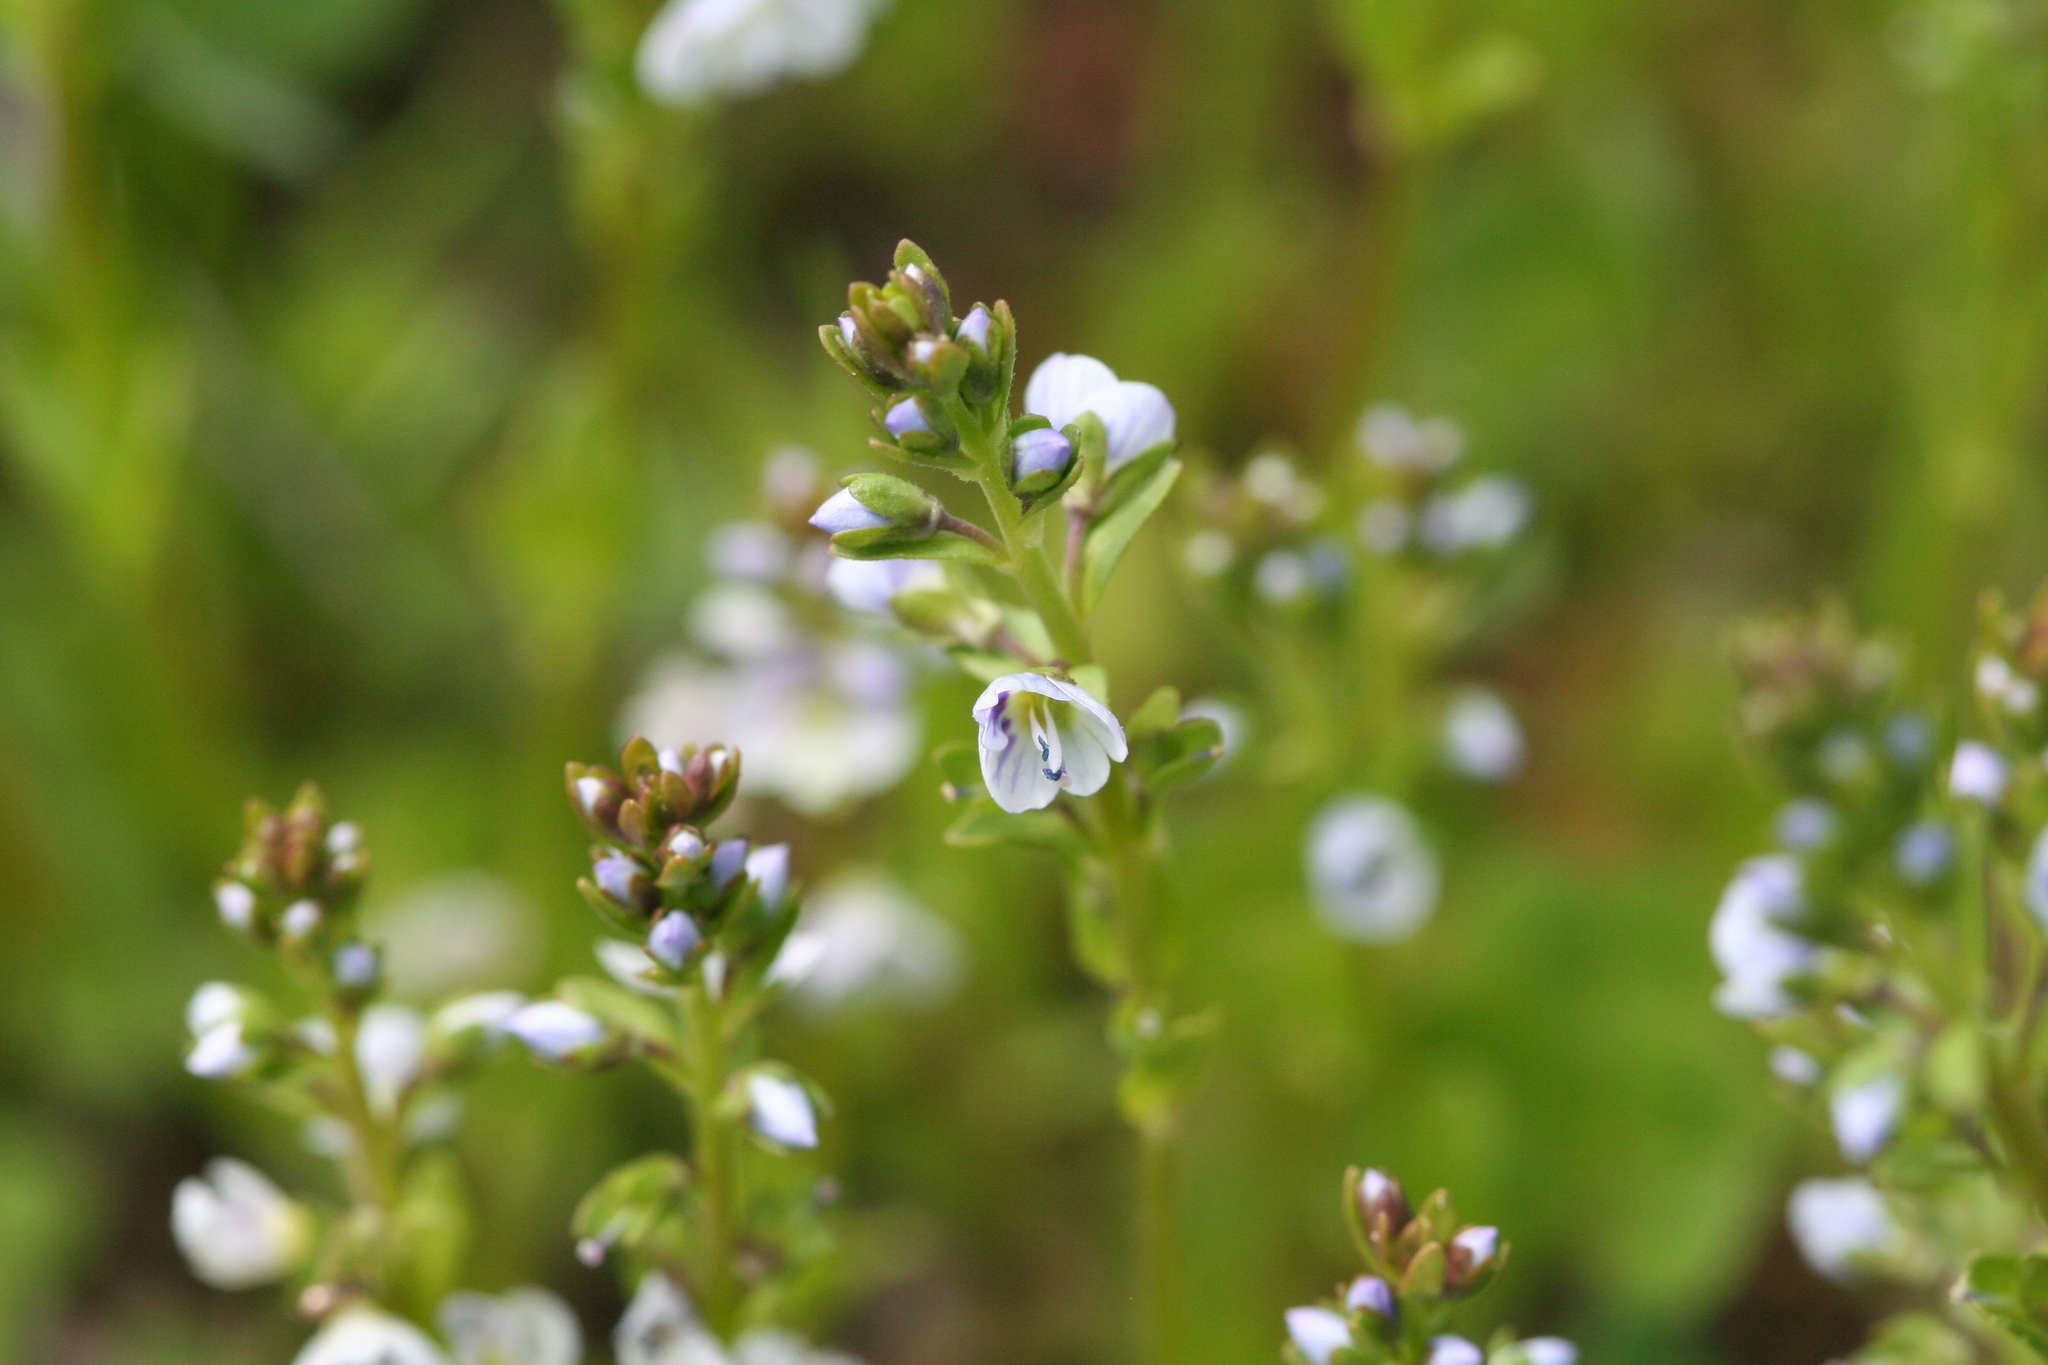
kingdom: Plantae
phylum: Tracheophyta
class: Magnoliopsida
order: Lamiales
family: Plantaginaceae
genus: Veronica
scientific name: Veronica serpyllifolia
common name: Thyme-leaved speedwell
